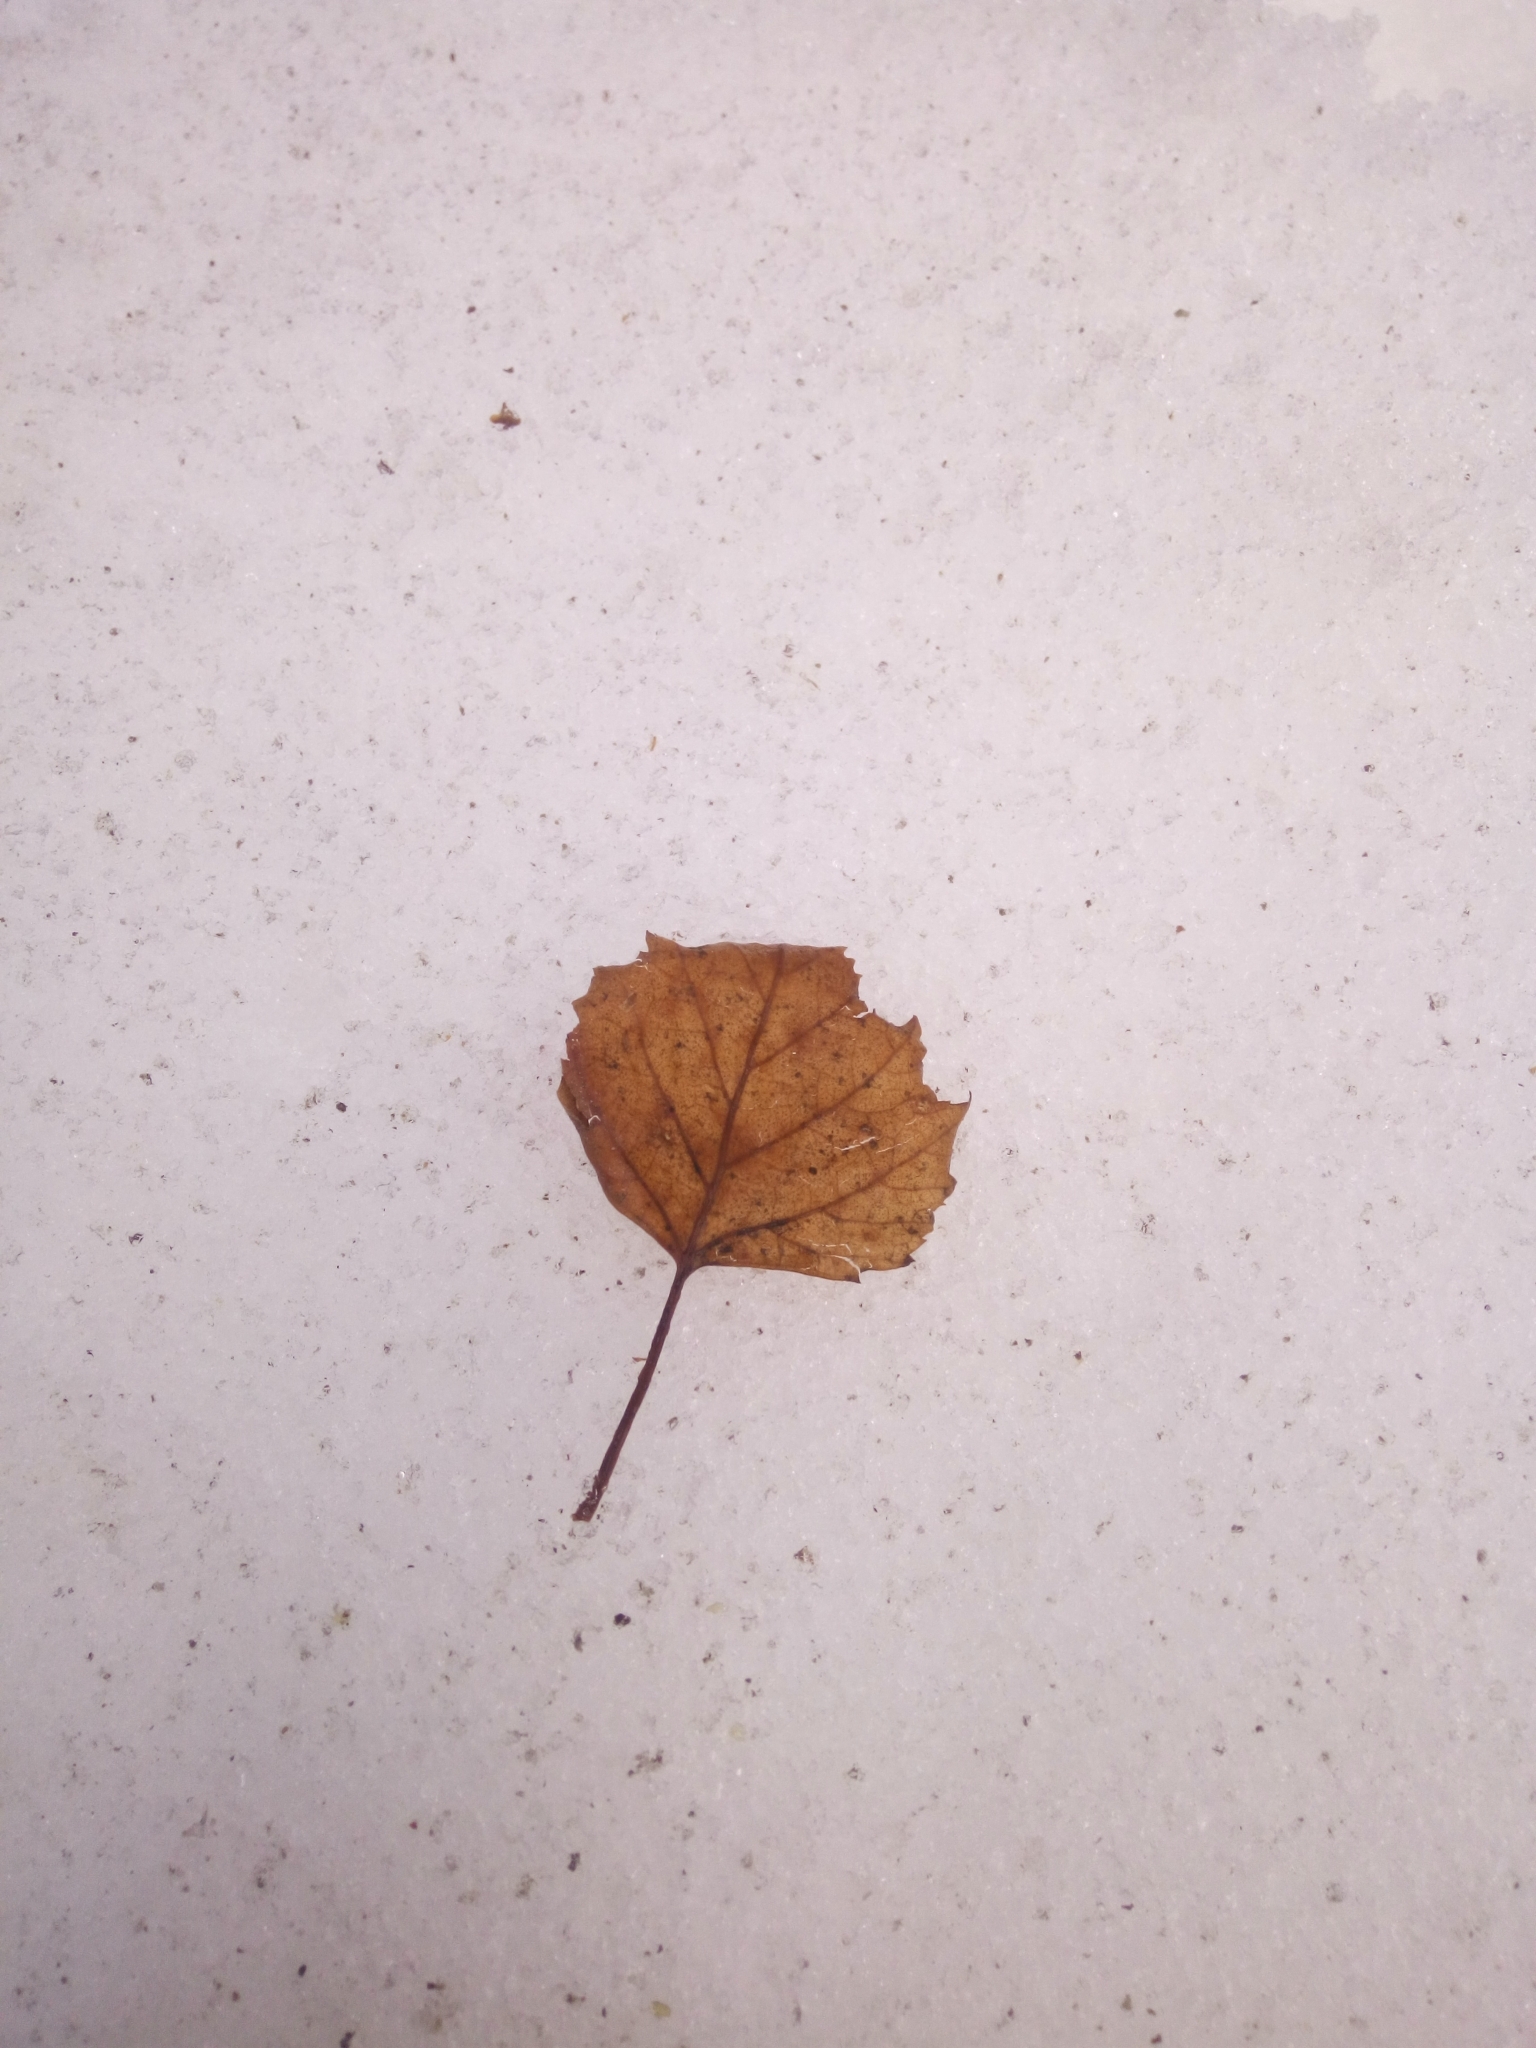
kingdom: Plantae
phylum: Tracheophyta
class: Magnoliopsida
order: Malpighiales
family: Salicaceae
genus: Populus
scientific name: Populus tremula
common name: European aspen
